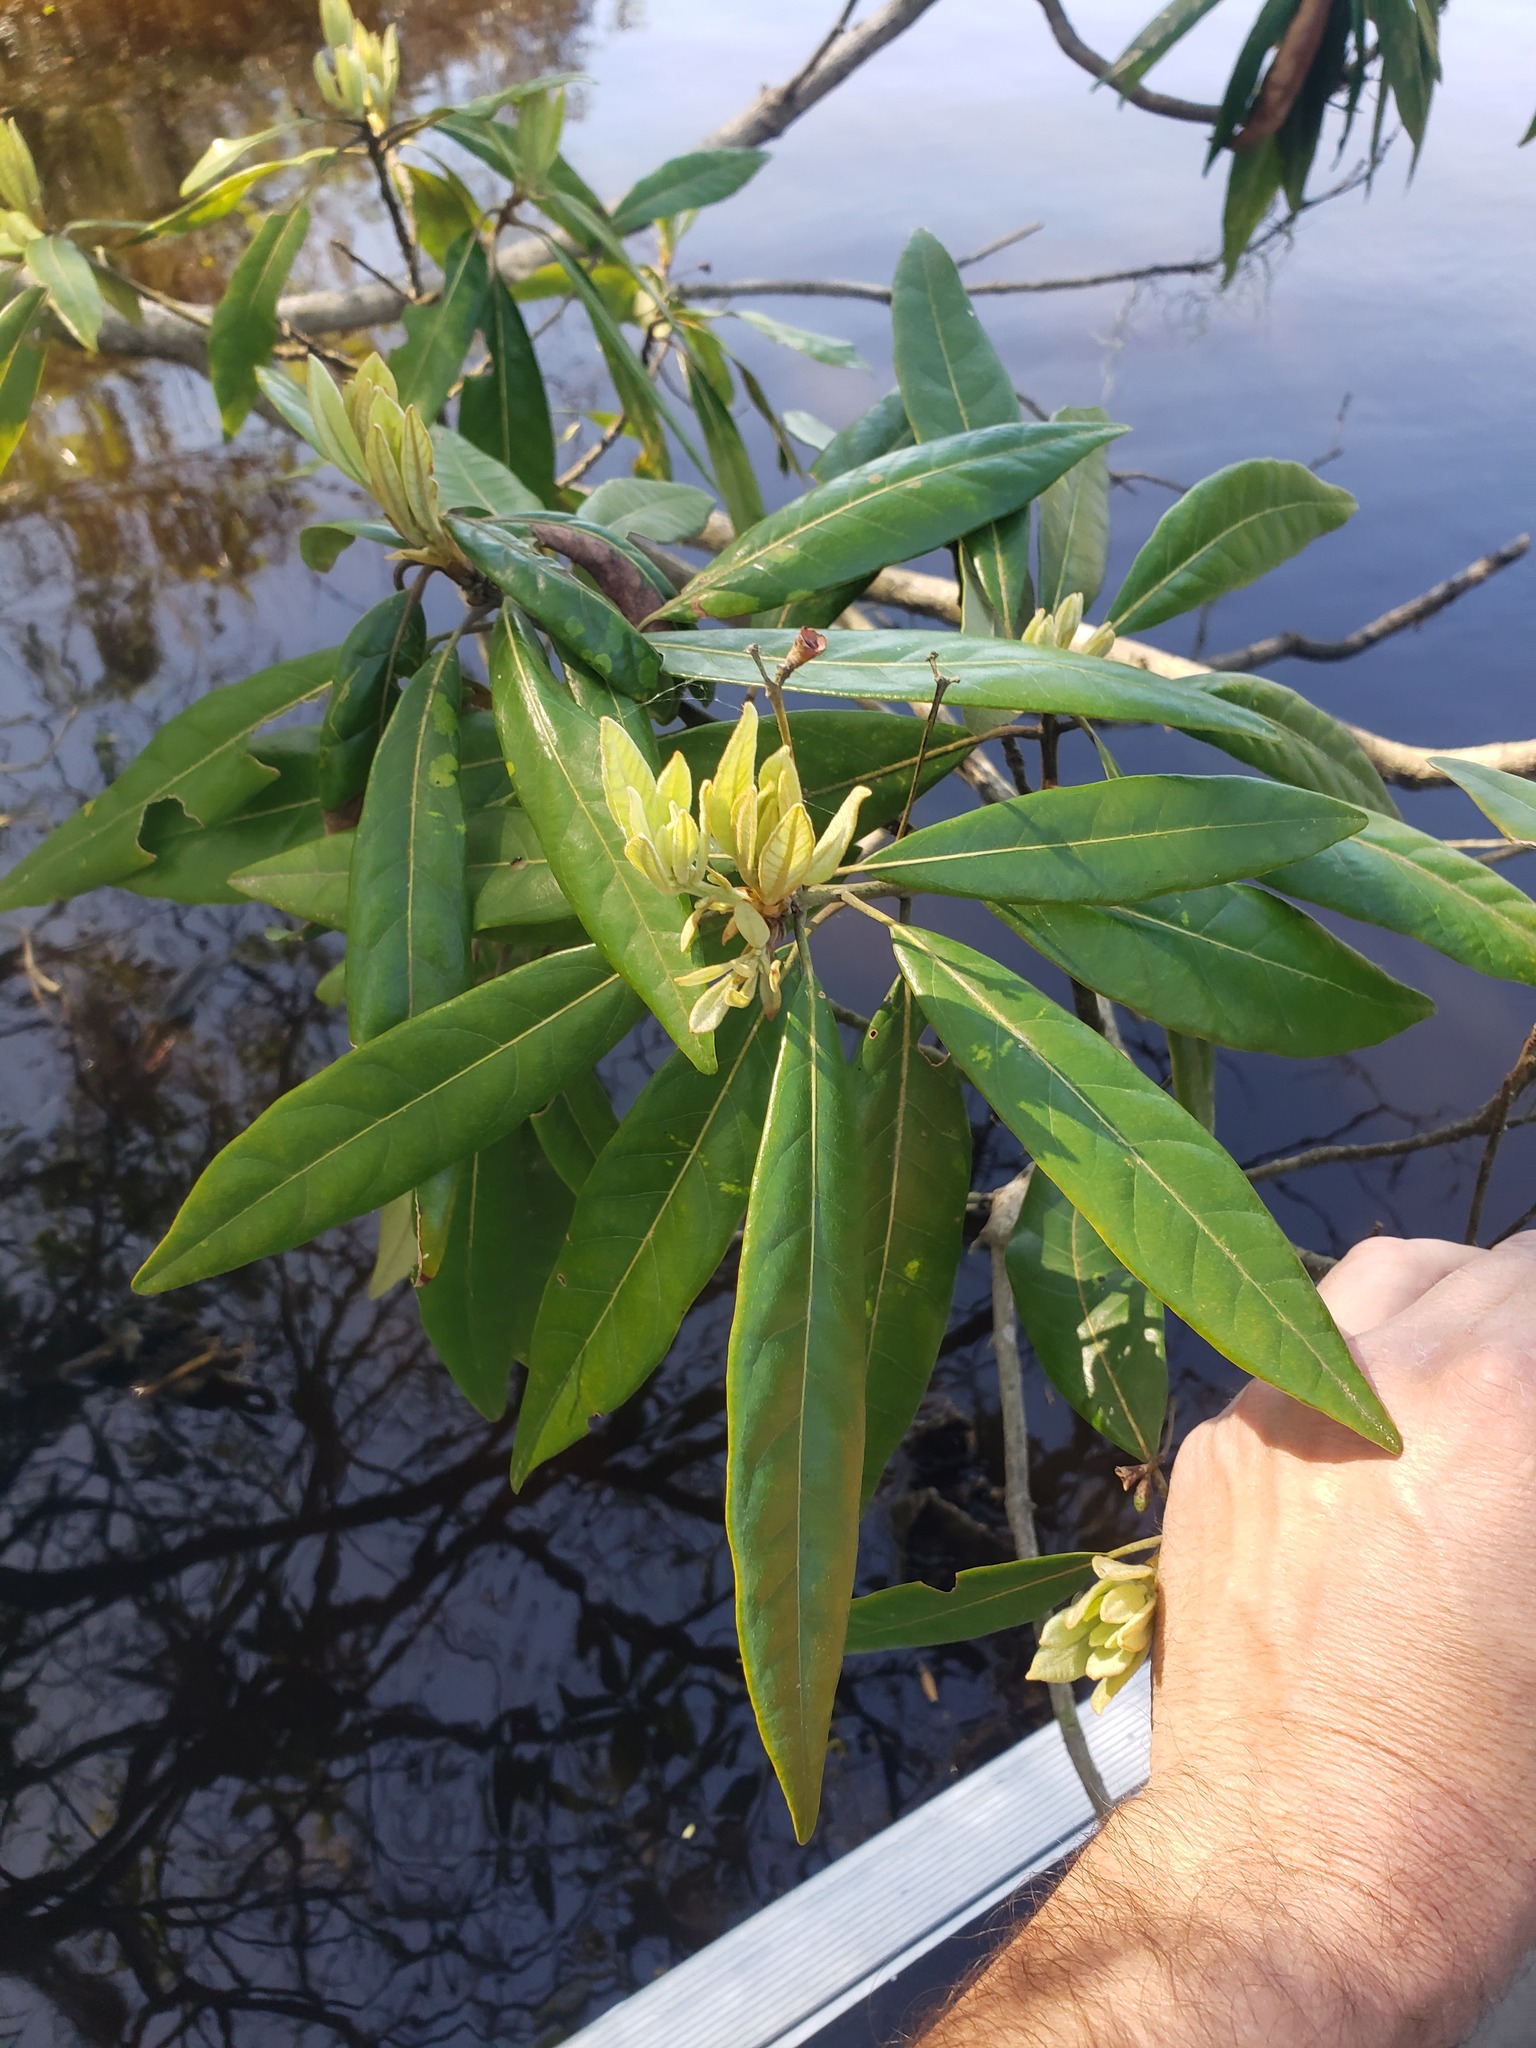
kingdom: Plantae
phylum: Tracheophyta
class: Magnoliopsida
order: Laurales
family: Lauraceae
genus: Persea
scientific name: Persea palustris
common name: Swampbay
